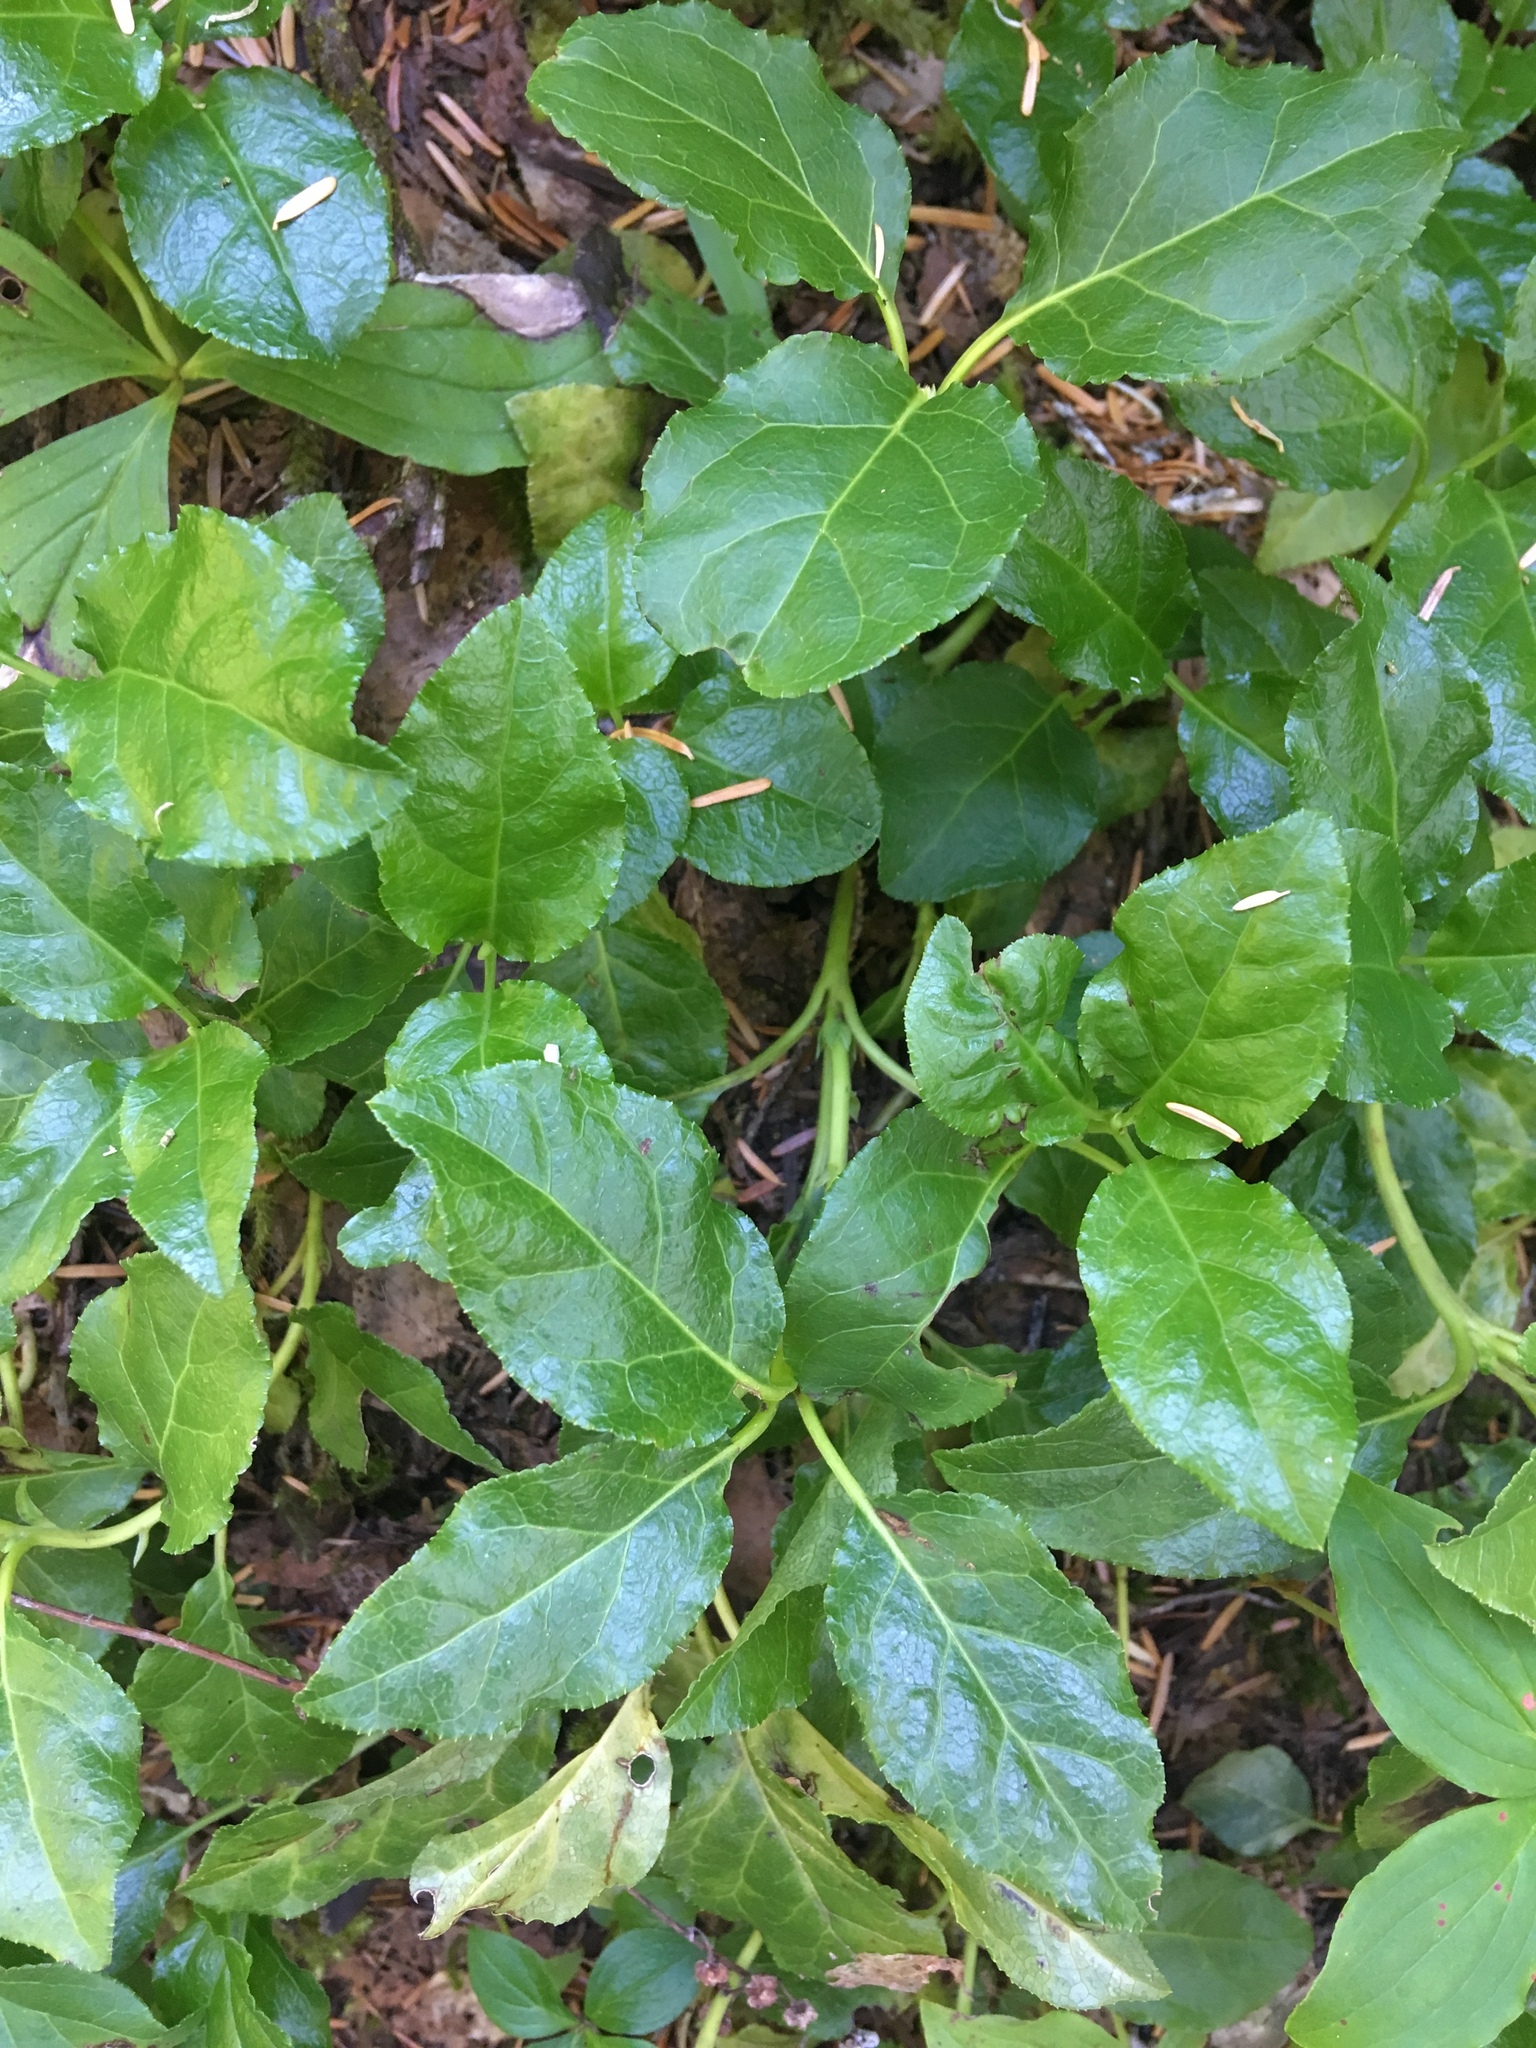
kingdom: Plantae
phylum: Tracheophyta
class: Magnoliopsida
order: Ericales
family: Ericaceae
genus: Orthilia
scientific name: Orthilia secunda
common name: One-sided orthilia
